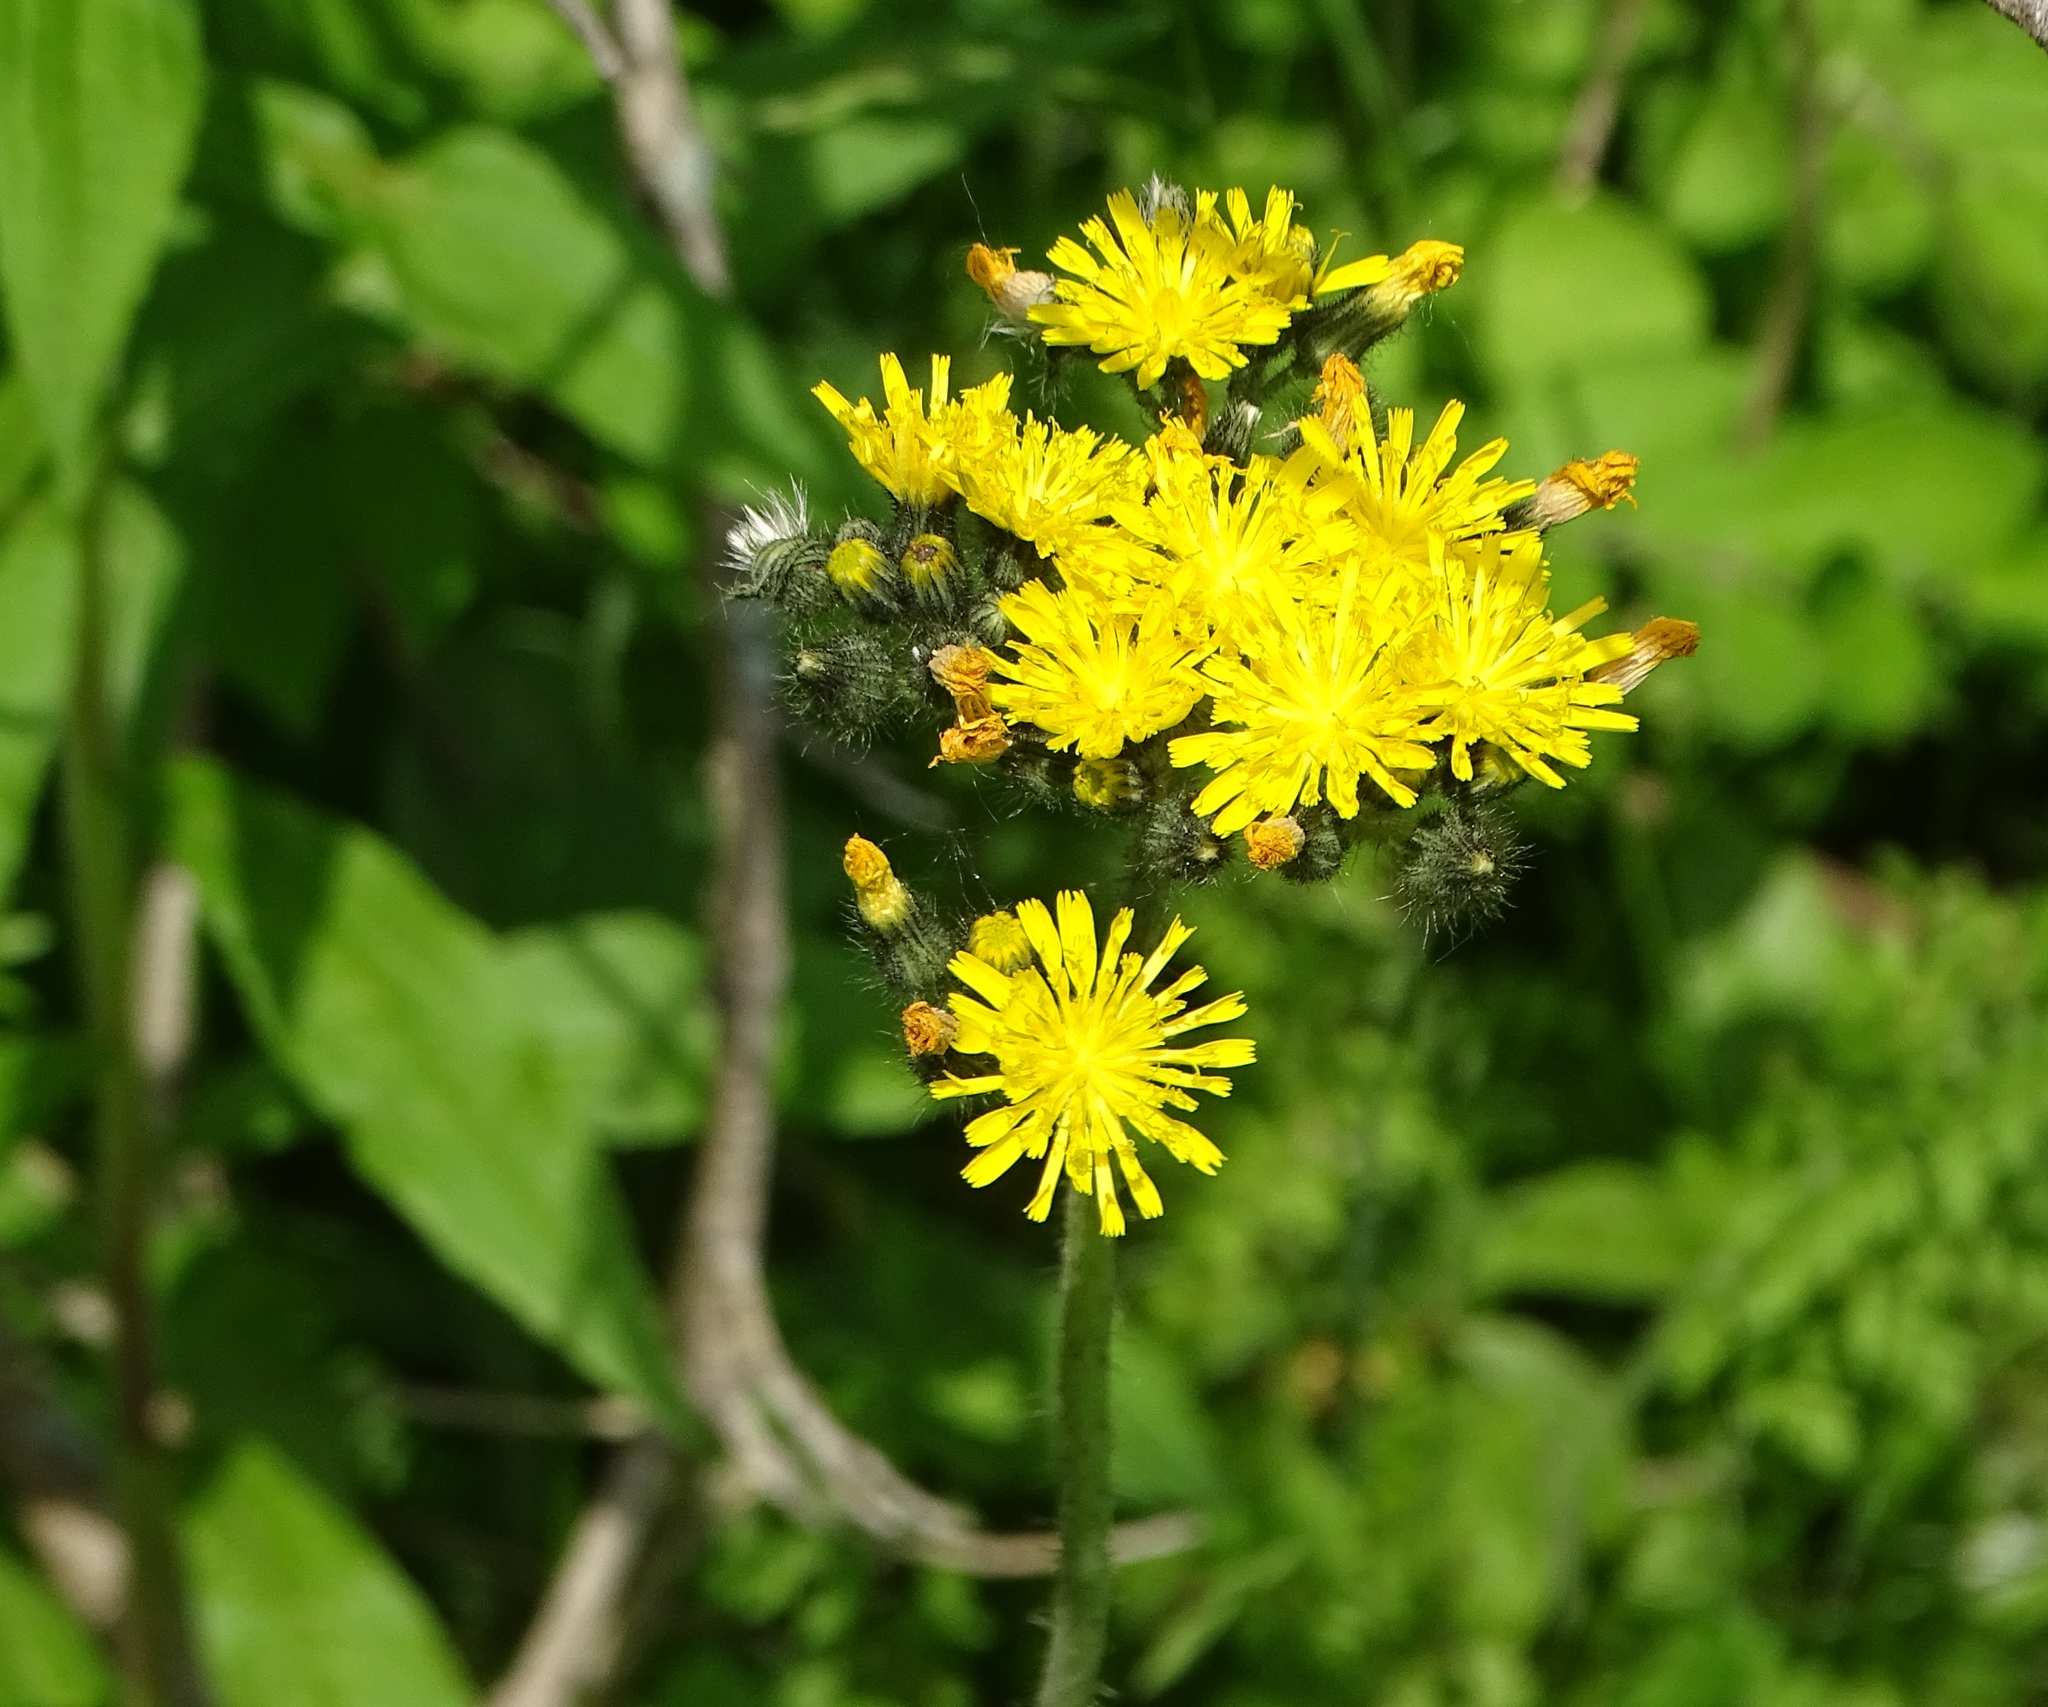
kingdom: Plantae
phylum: Tracheophyta
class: Magnoliopsida
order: Asterales
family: Asteraceae
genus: Pilosella
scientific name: Pilosella caespitosa
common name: Yellow fox-and-cubs
